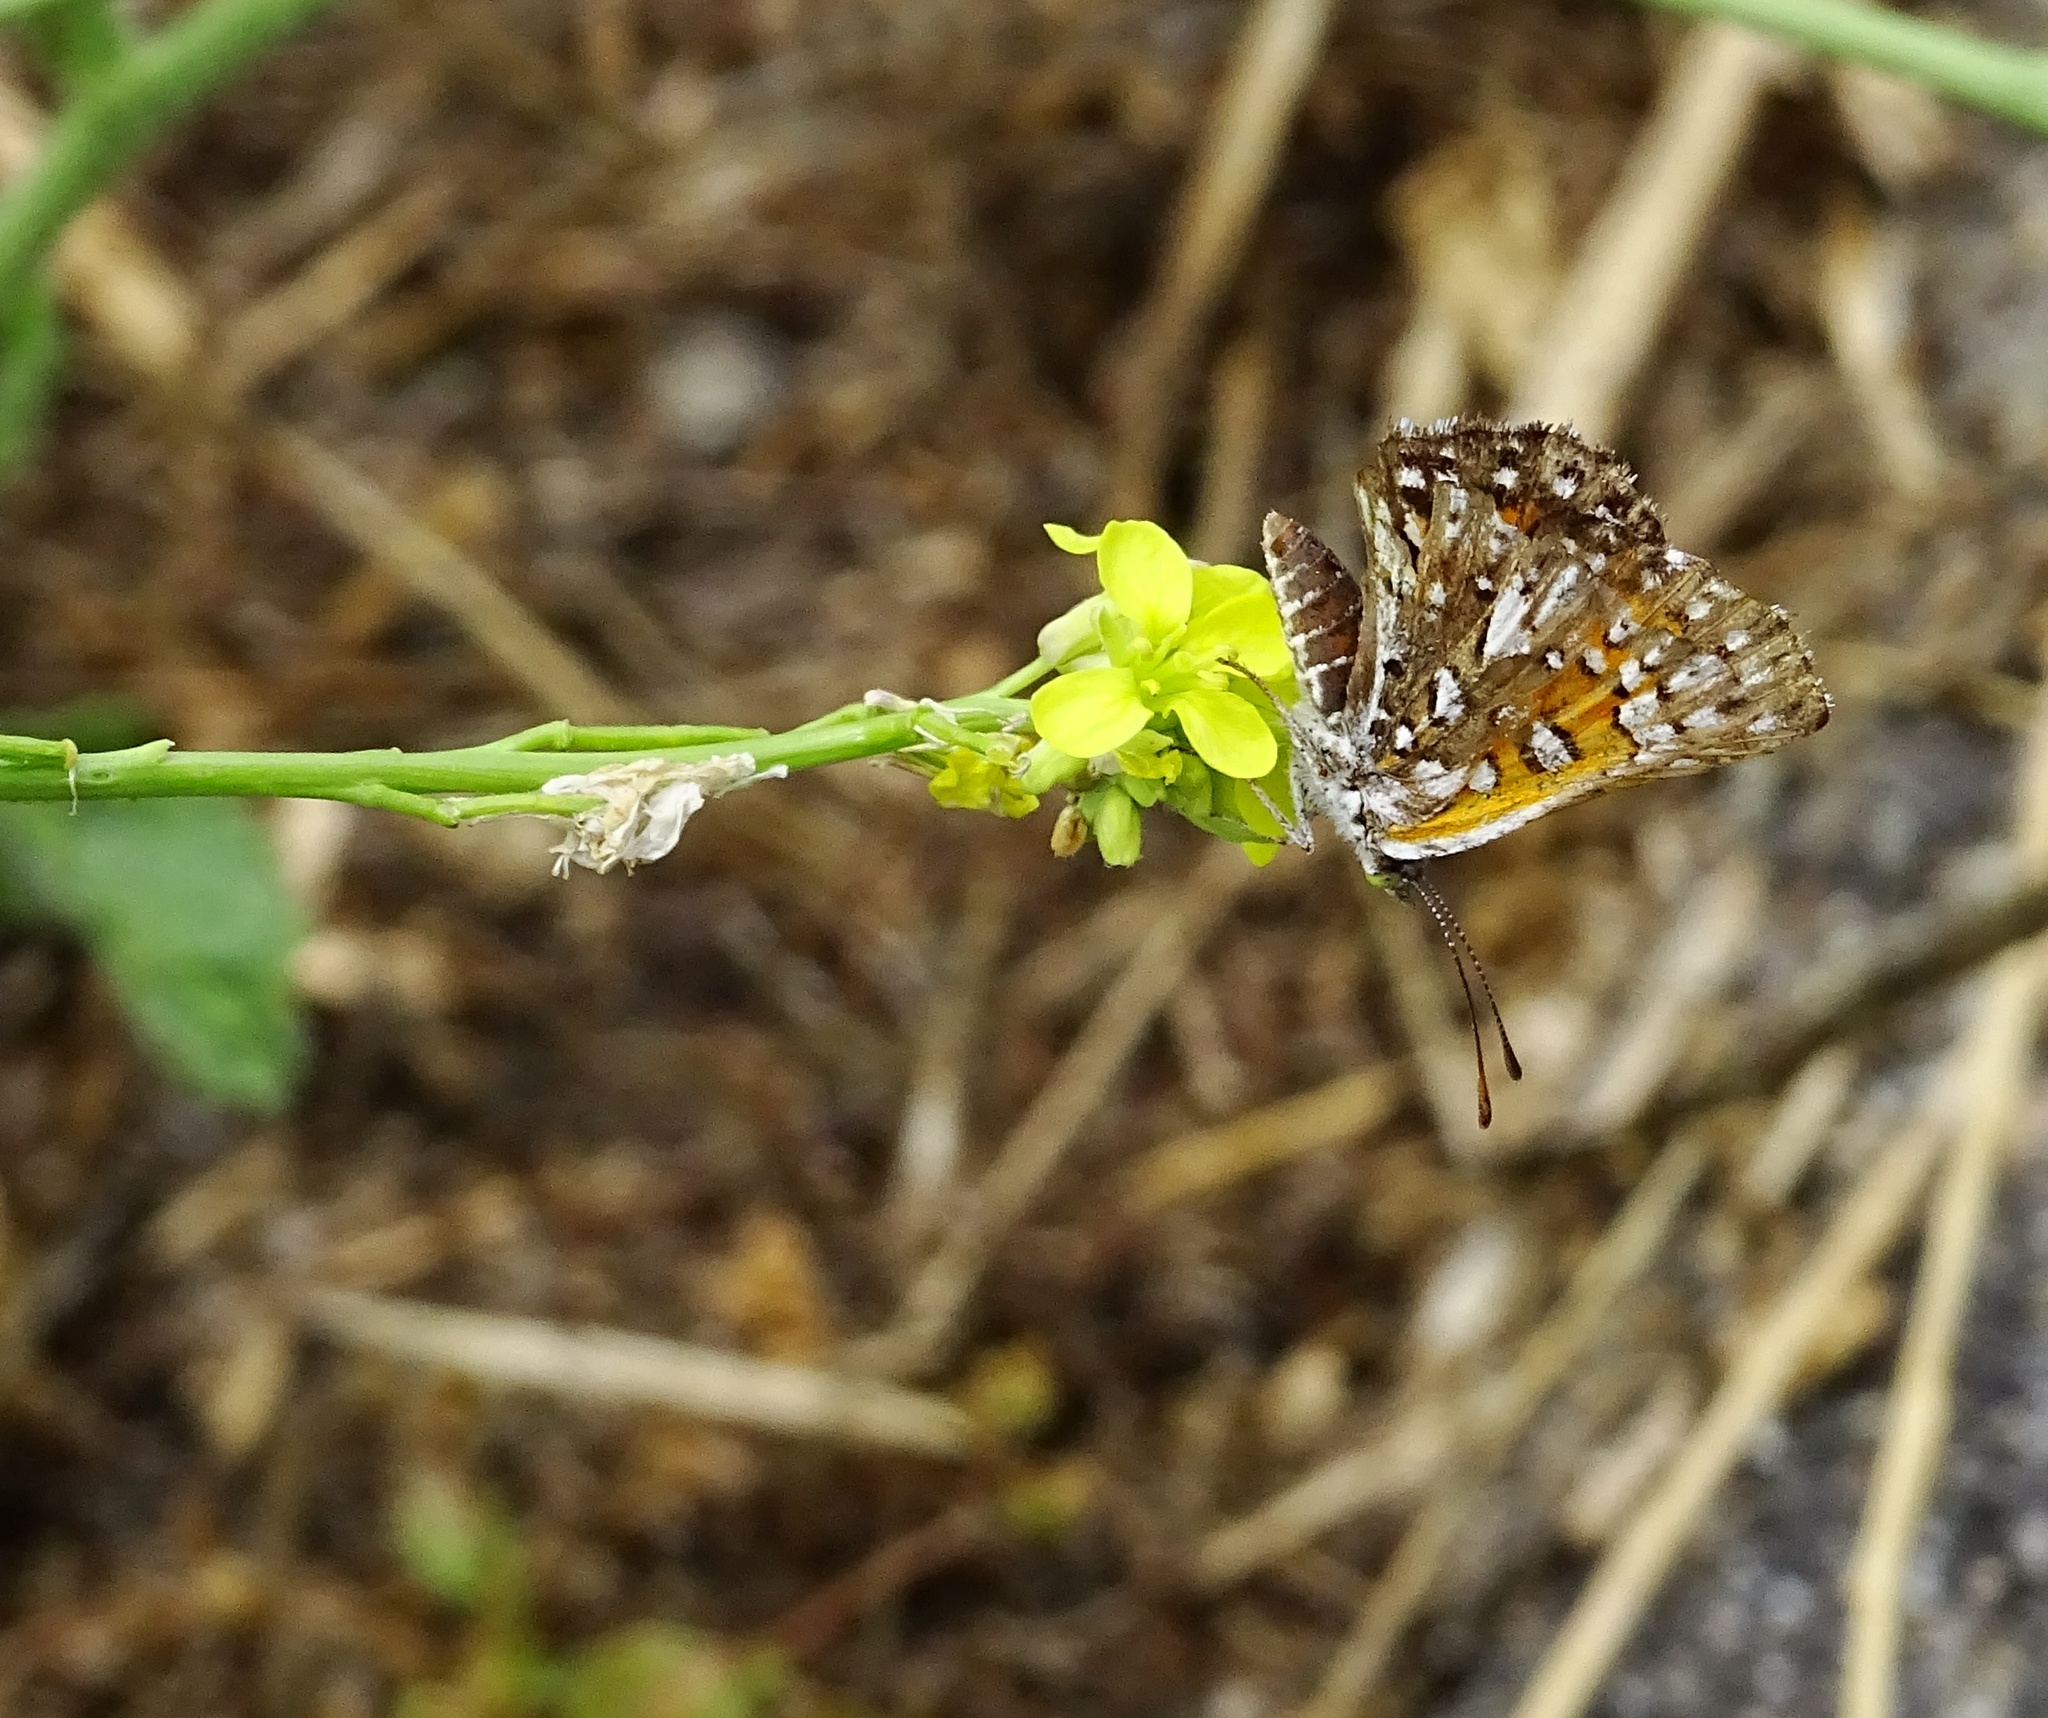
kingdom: Animalia
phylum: Arthropoda
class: Insecta
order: Lepidoptera
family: Riodinidae
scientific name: Riodinidae
